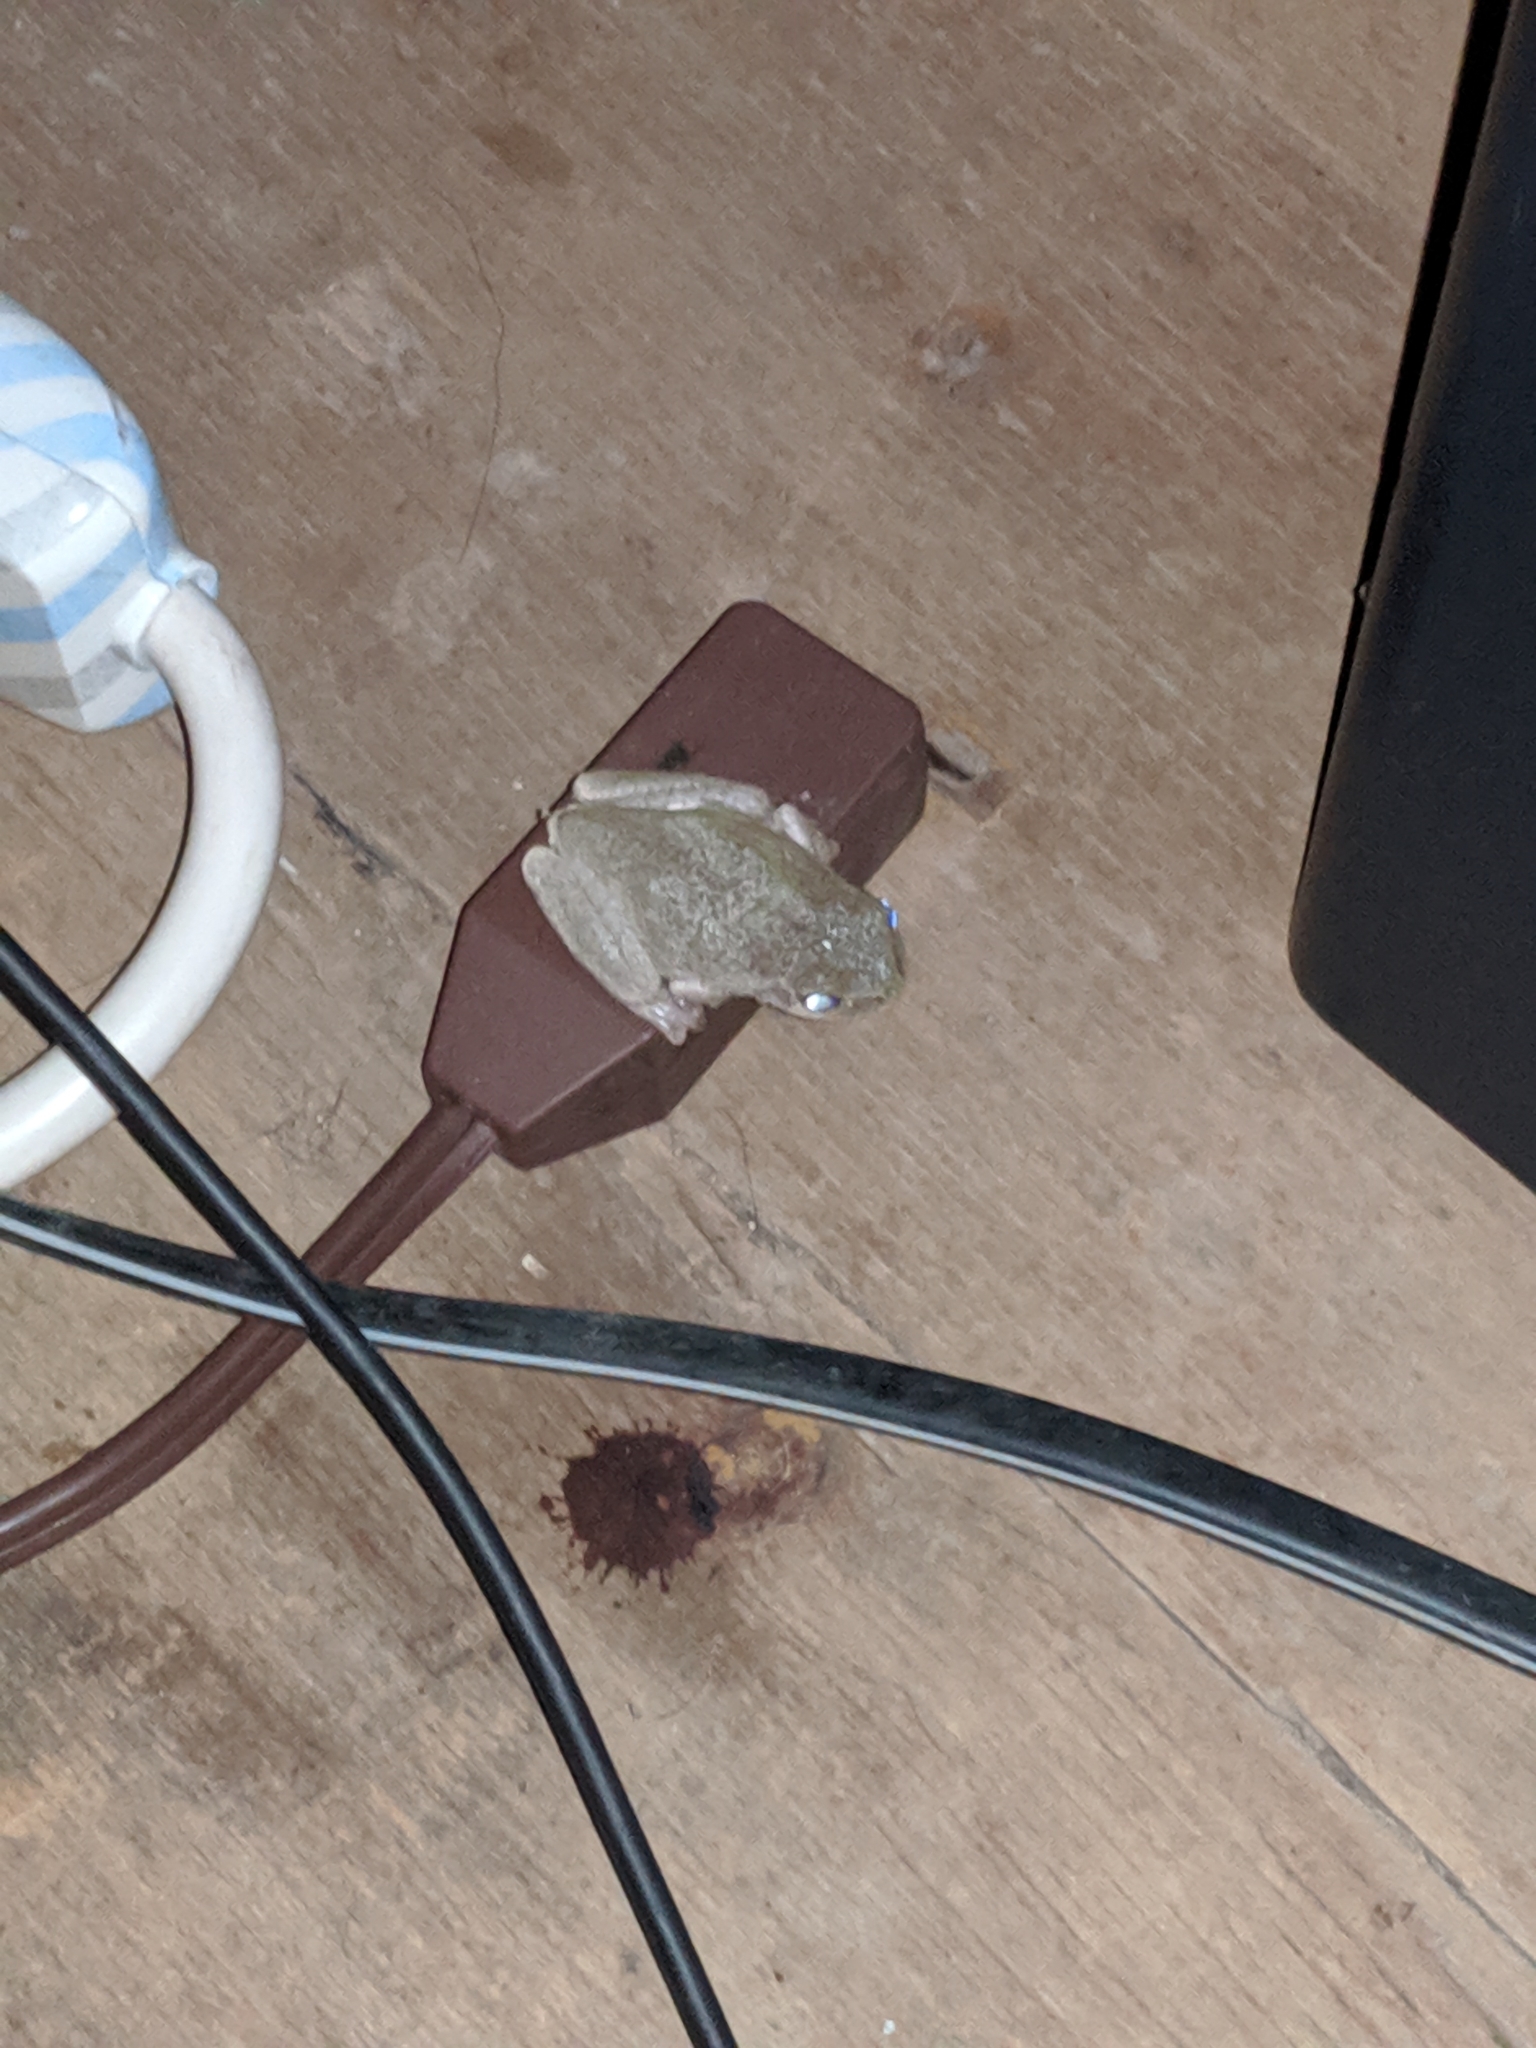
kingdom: Animalia
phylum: Chordata
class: Amphibia
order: Anura
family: Hylidae
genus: Hyla
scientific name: Hyla
